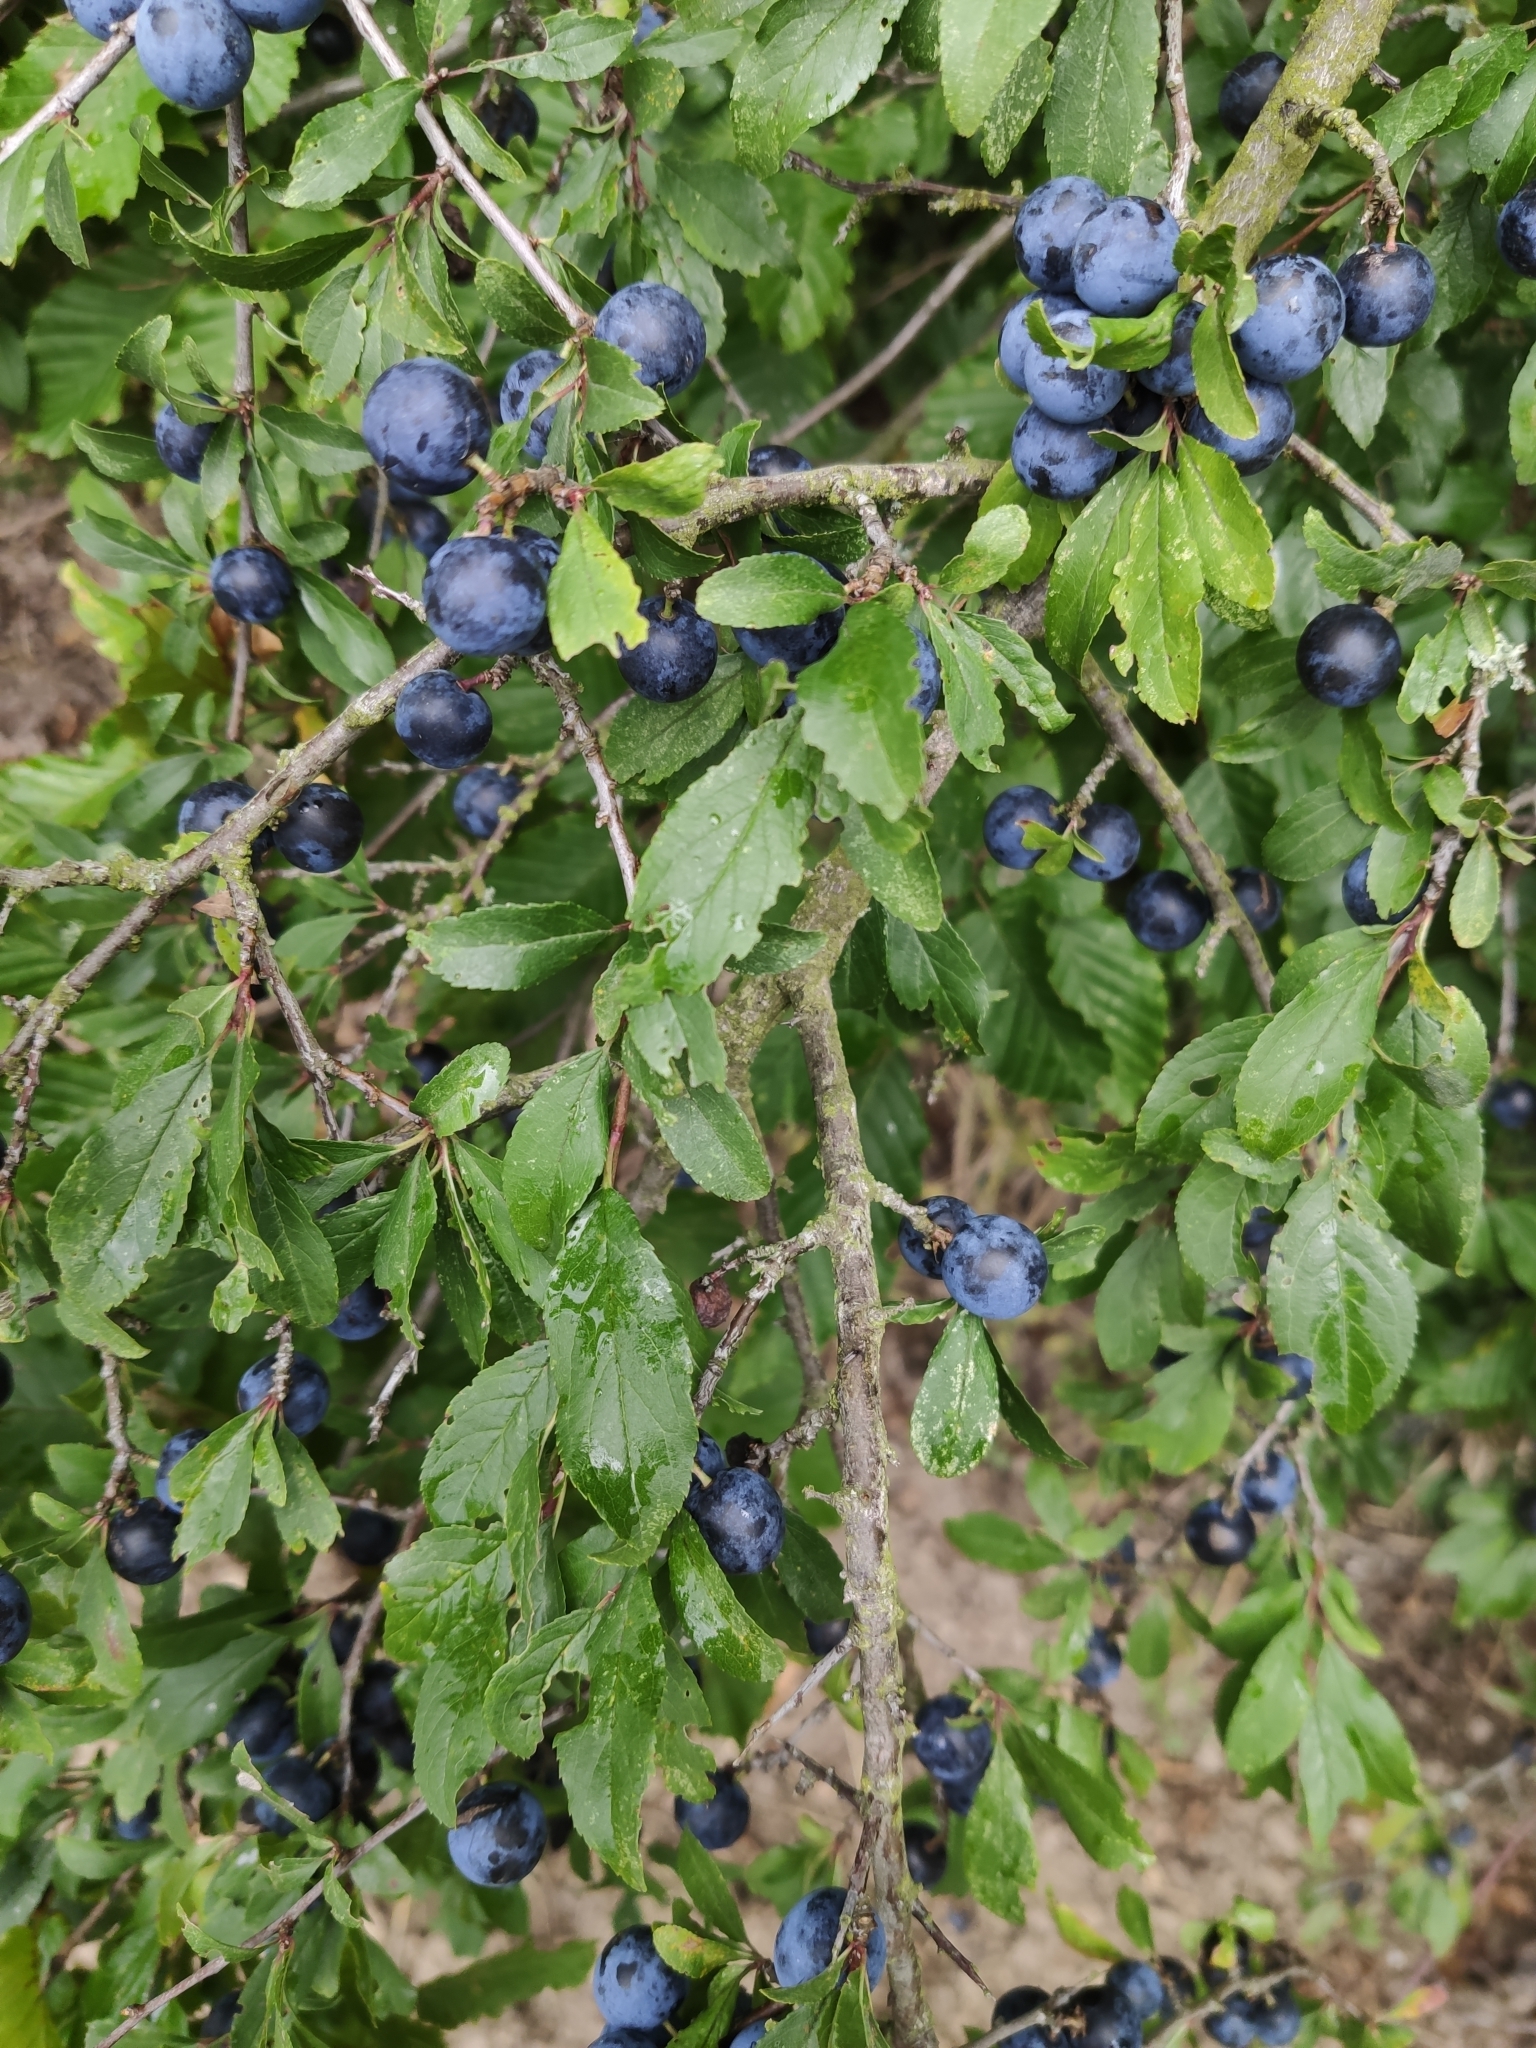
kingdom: Plantae
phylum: Tracheophyta
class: Magnoliopsida
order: Rosales
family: Rosaceae
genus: Prunus
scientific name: Prunus spinosa
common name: Blackthorn
